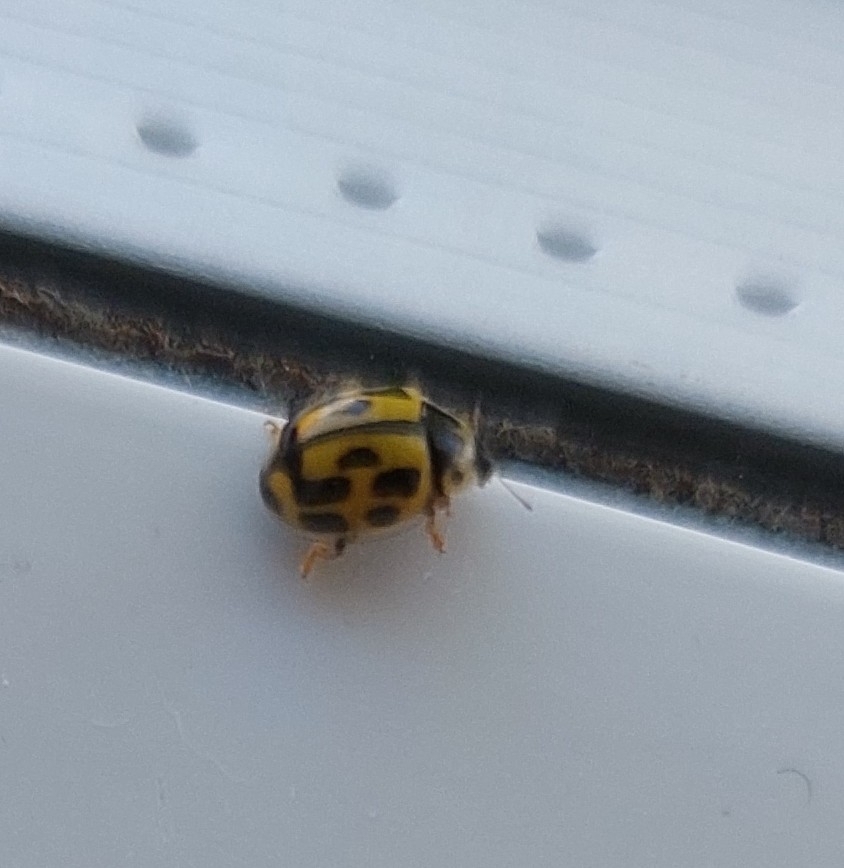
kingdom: Animalia
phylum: Arthropoda
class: Insecta
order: Coleoptera
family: Coccinellidae
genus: Propylaea
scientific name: Propylaea quatuordecimpunctata
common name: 14-spotted ladybird beetle
